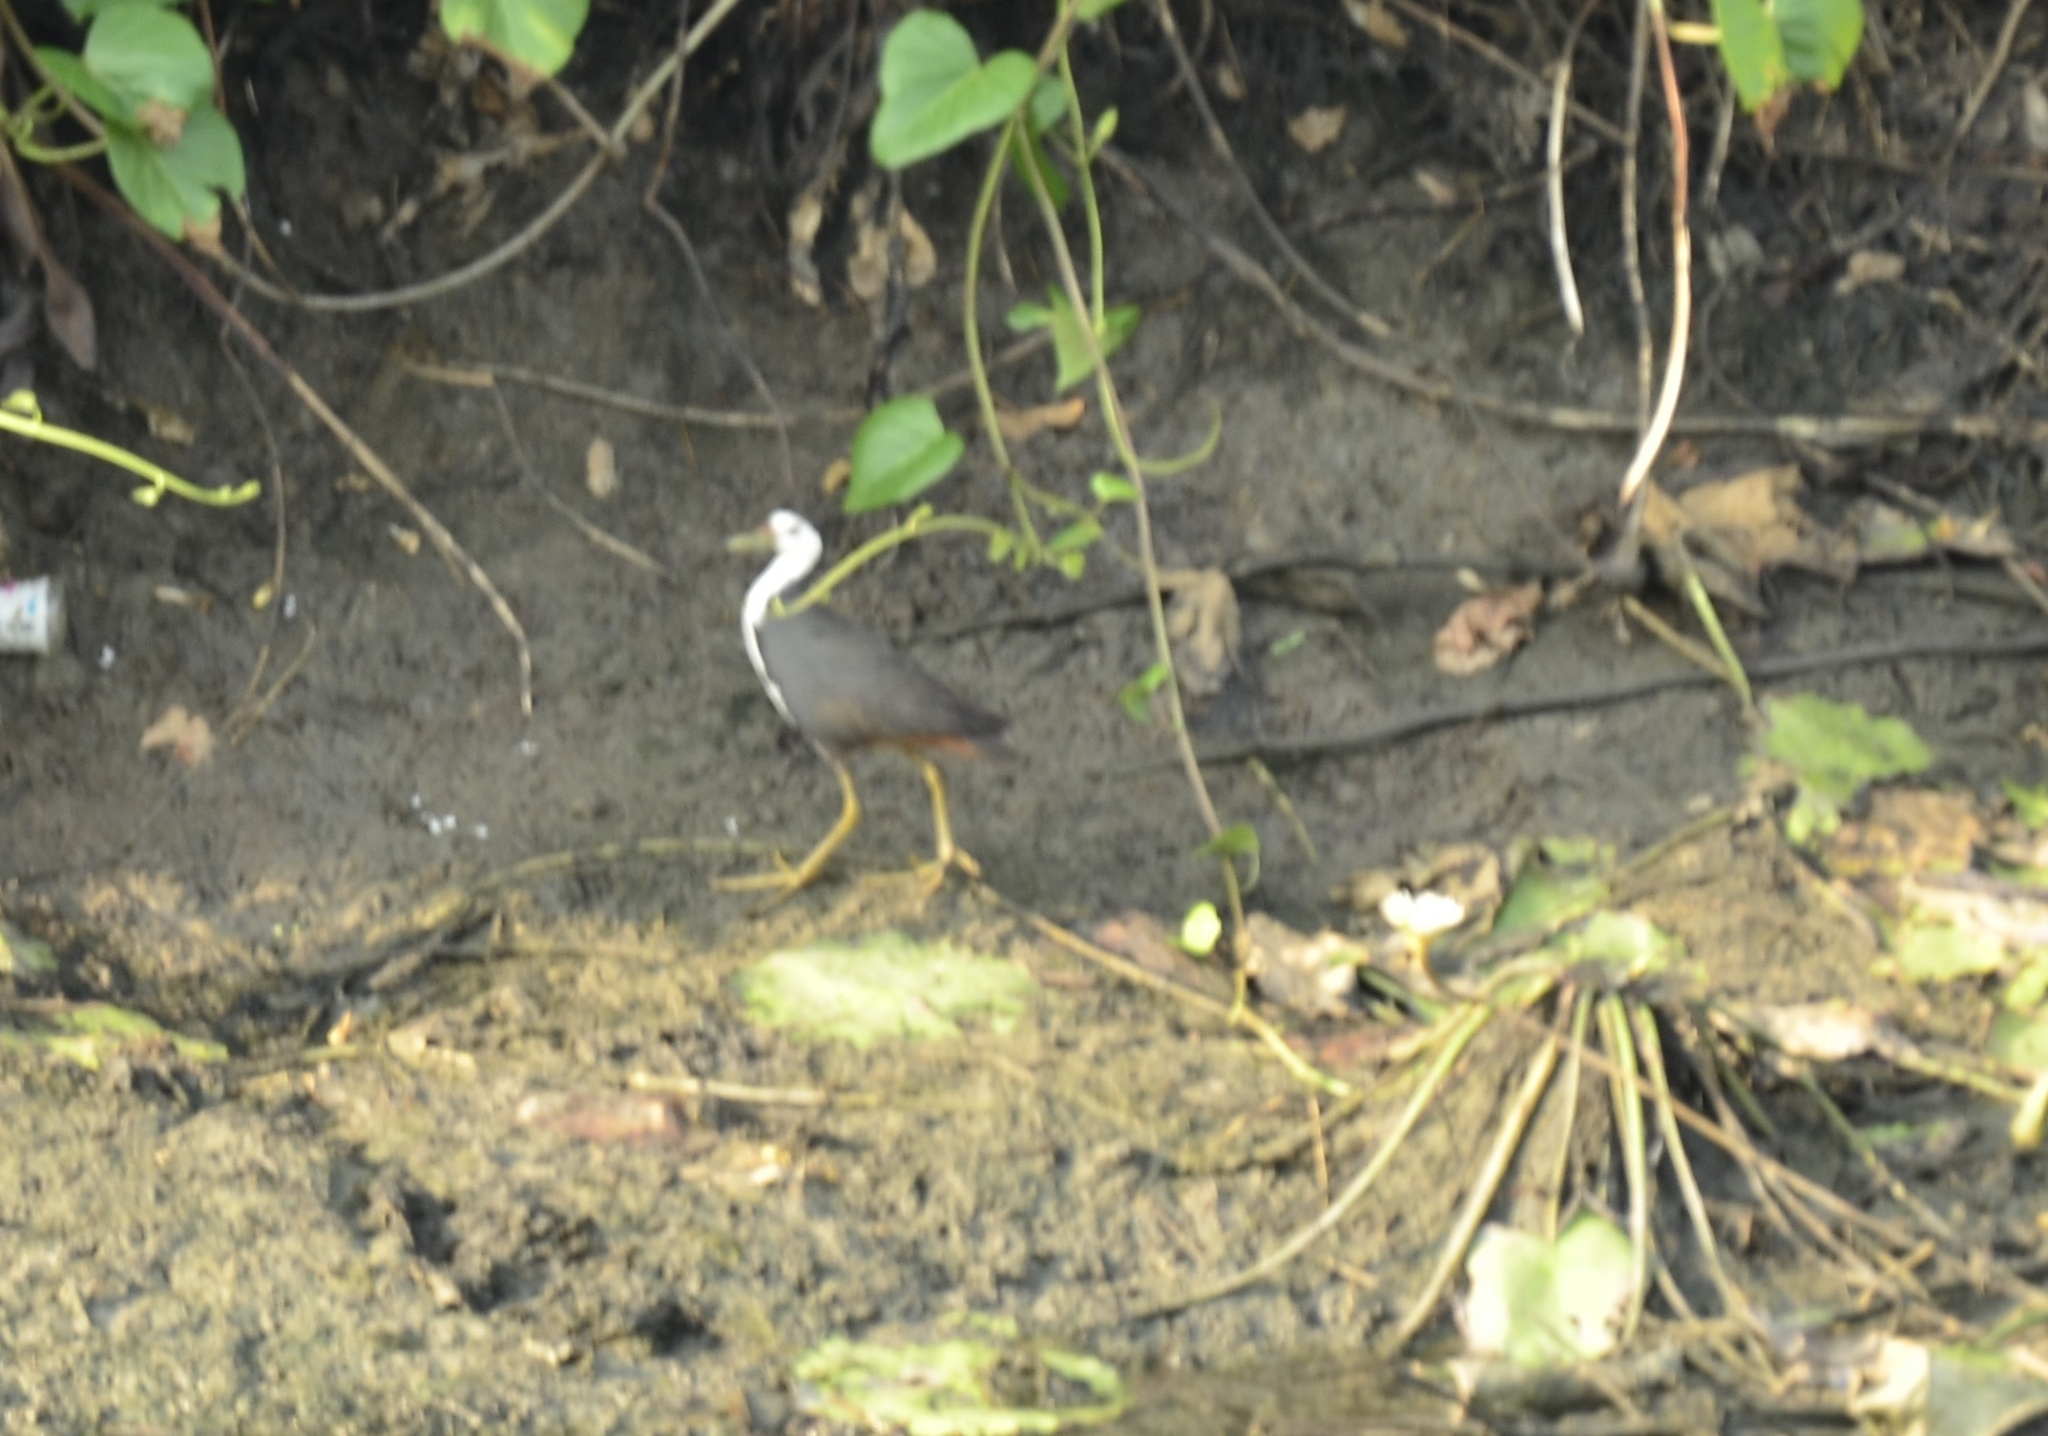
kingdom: Animalia
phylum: Chordata
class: Aves
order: Gruiformes
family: Rallidae
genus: Amaurornis
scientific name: Amaurornis phoenicurus
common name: White-breasted waterhen
